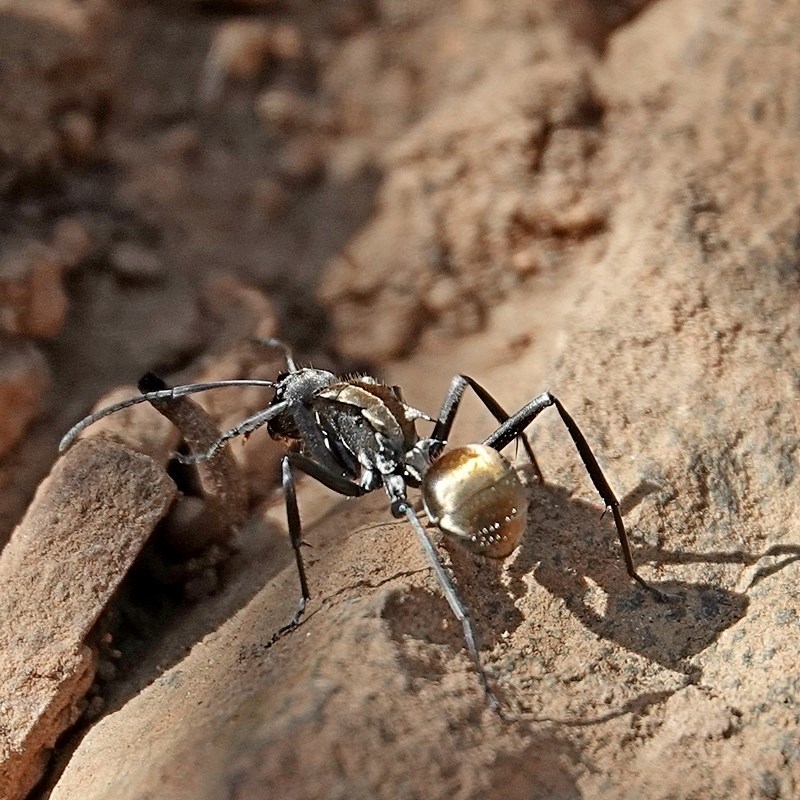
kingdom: Animalia
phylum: Arthropoda
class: Insecta
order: Hymenoptera
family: Formicidae
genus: Polyrhachis
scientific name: Polyrhachis ammon
